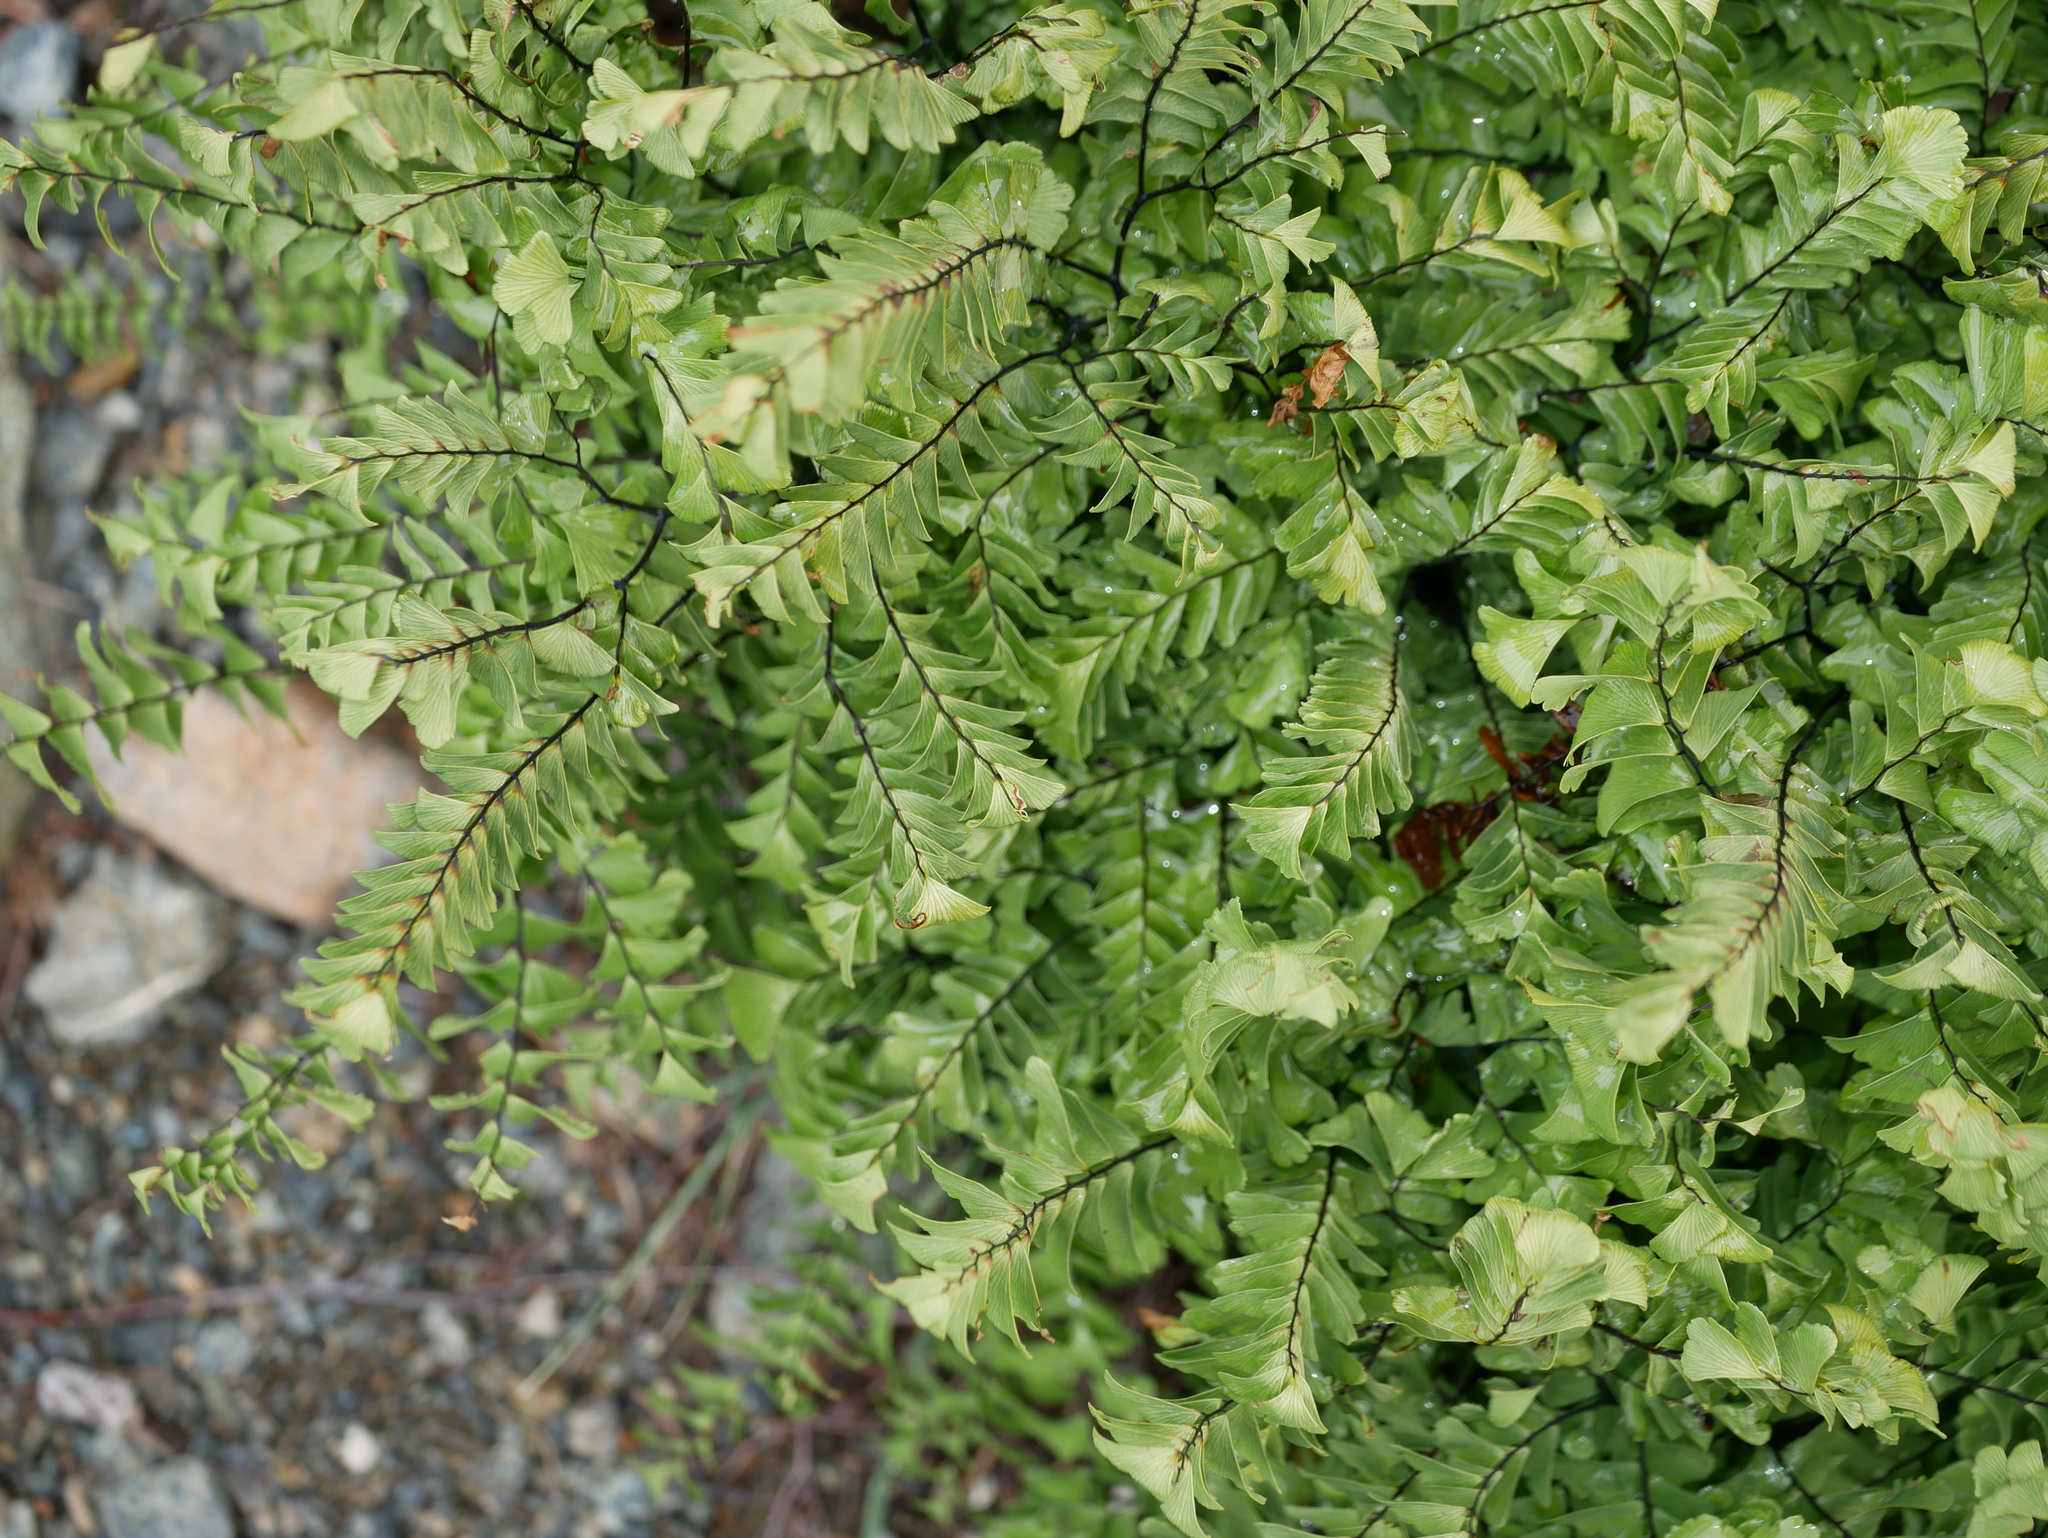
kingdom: Plantae
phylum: Tracheophyta
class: Polypodiopsida
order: Polypodiales
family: Pteridaceae
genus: Adiantum
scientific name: Adiantum aleuticum
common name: Aleutian maidenhair fern
